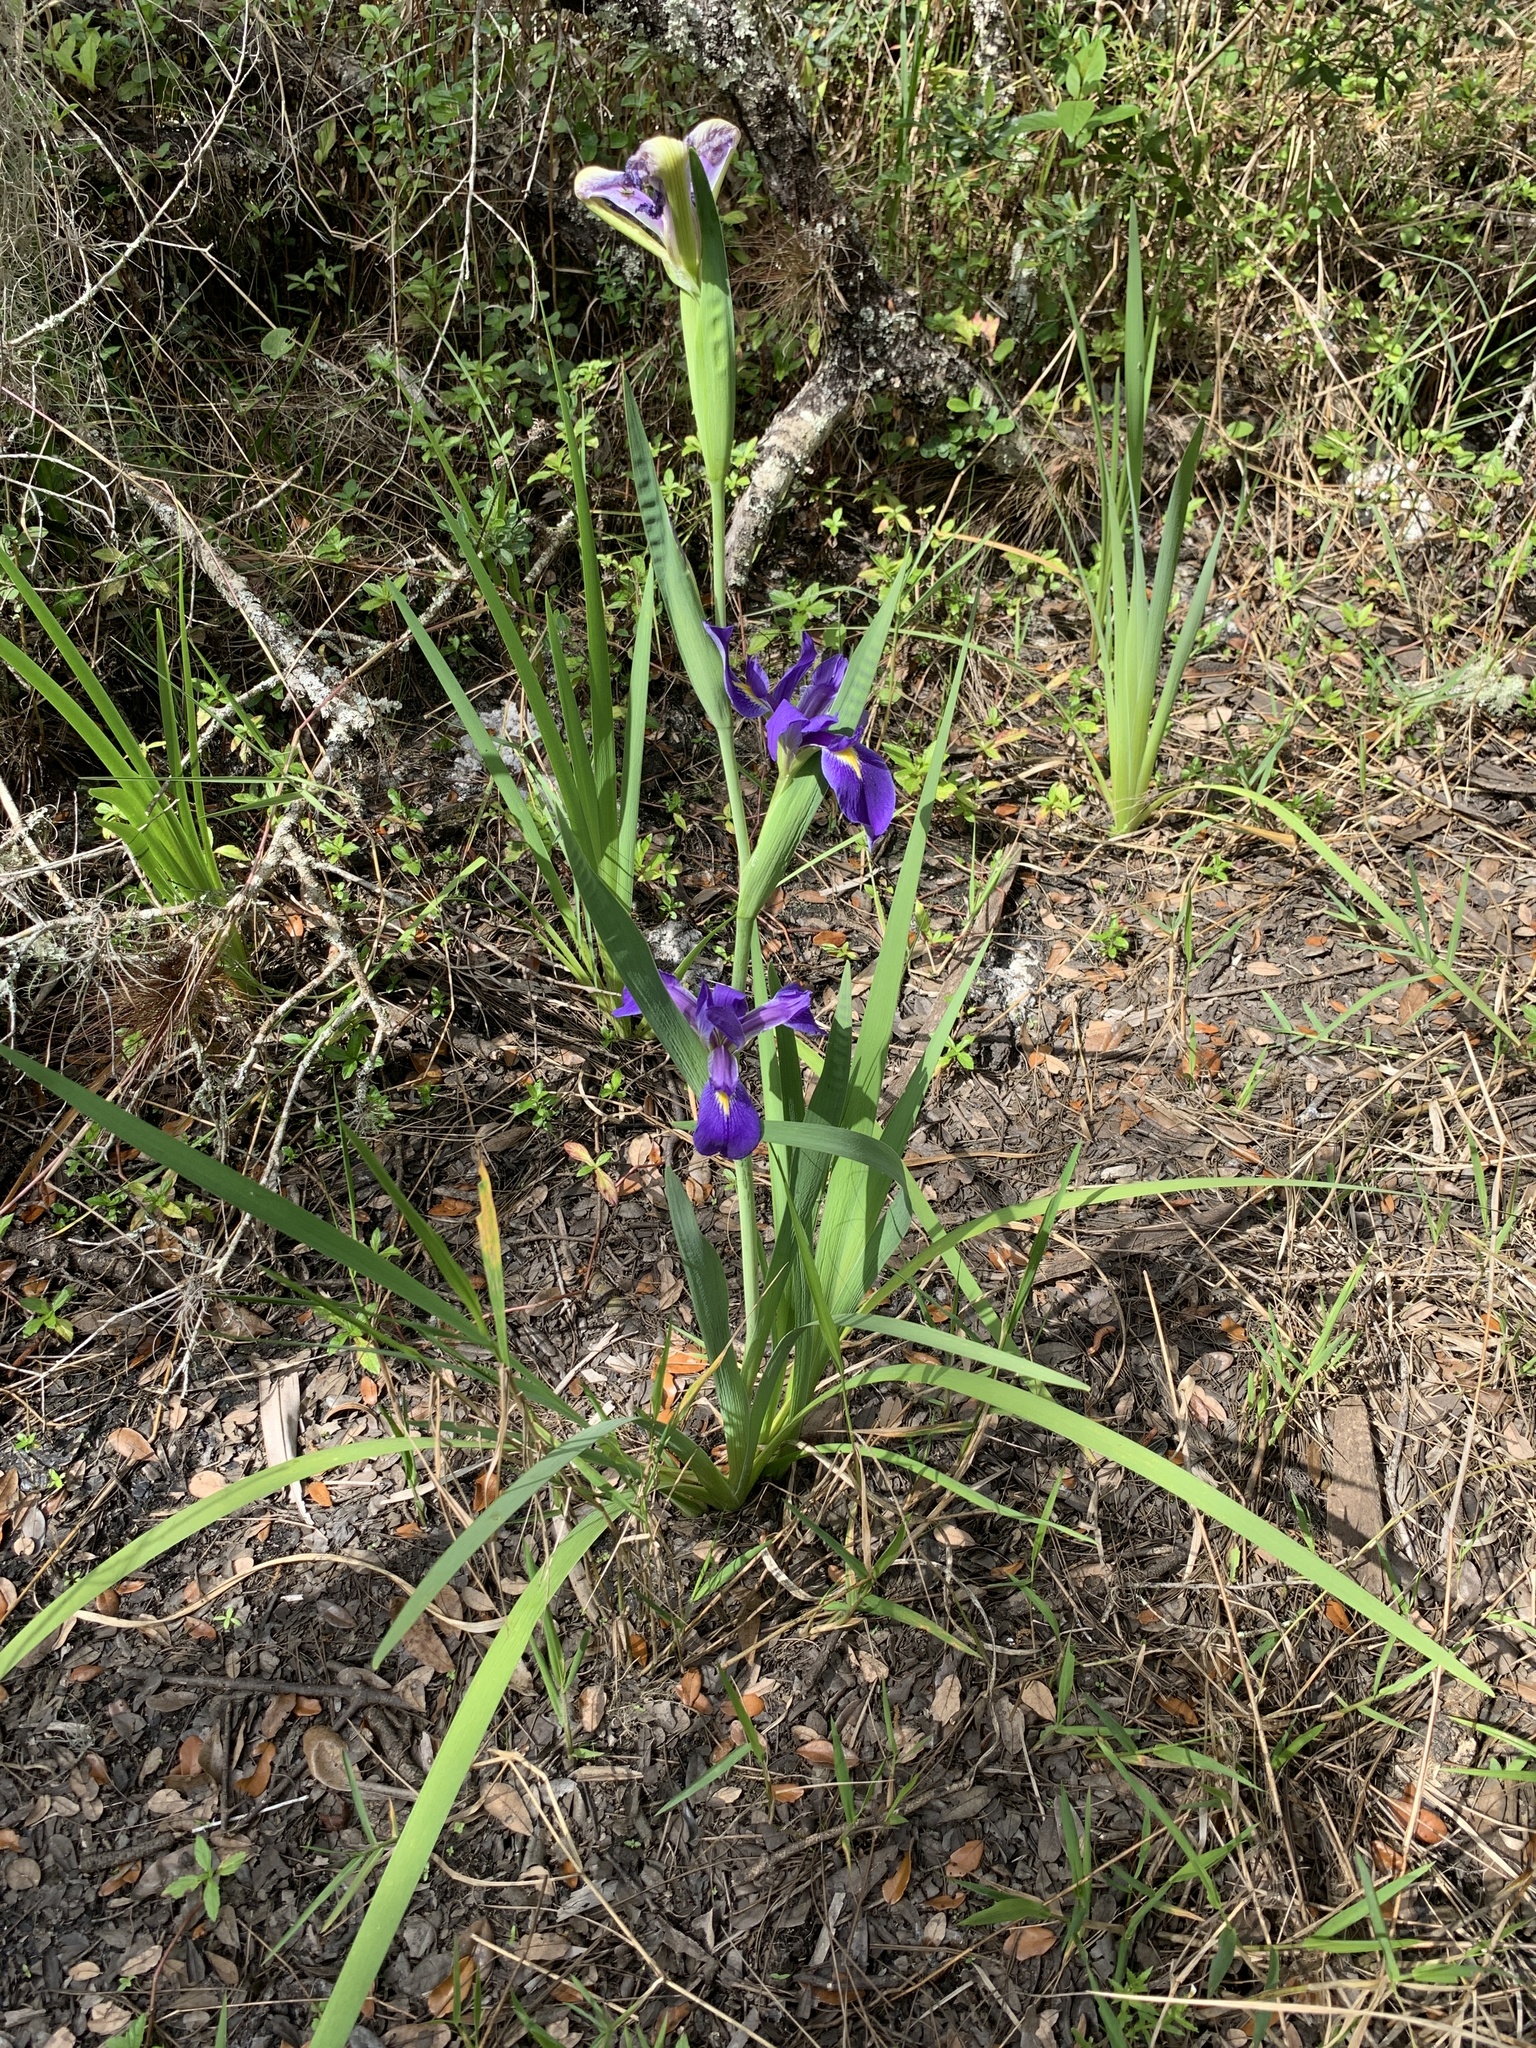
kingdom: Plantae
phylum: Tracheophyta
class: Liliopsida
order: Asparagales
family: Iridaceae
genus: Iris
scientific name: Iris savannarum
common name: Prairie iris
